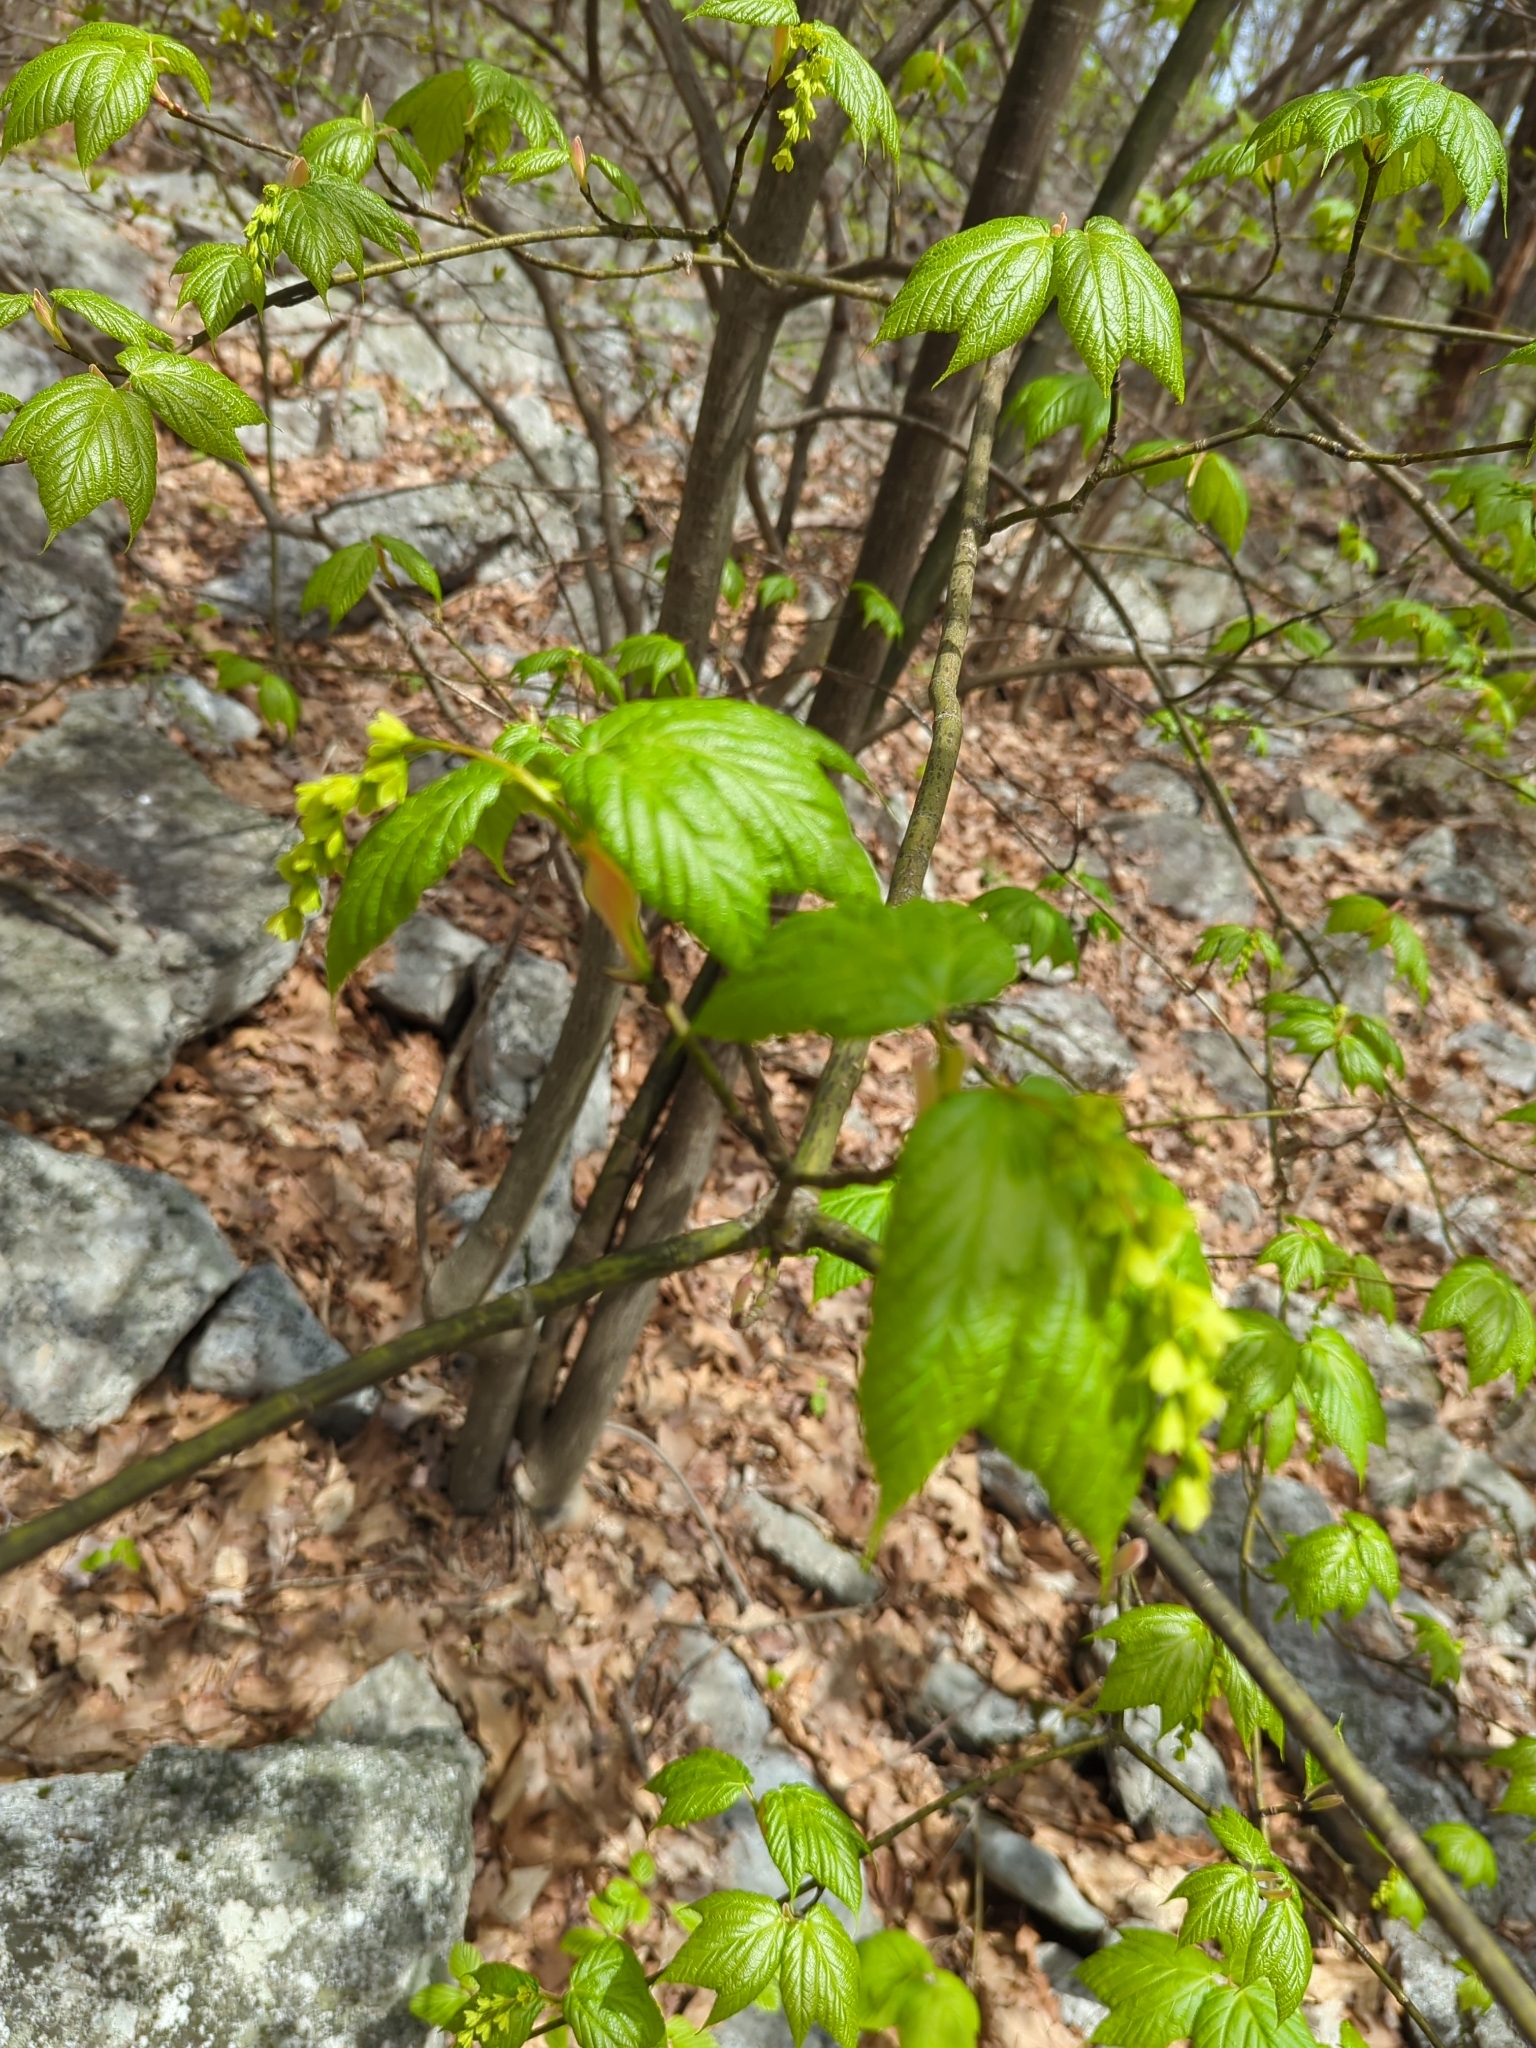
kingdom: Plantae
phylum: Tracheophyta
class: Magnoliopsida
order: Sapindales
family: Sapindaceae
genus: Acer
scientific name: Acer pensylvanicum
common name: Moosewood
